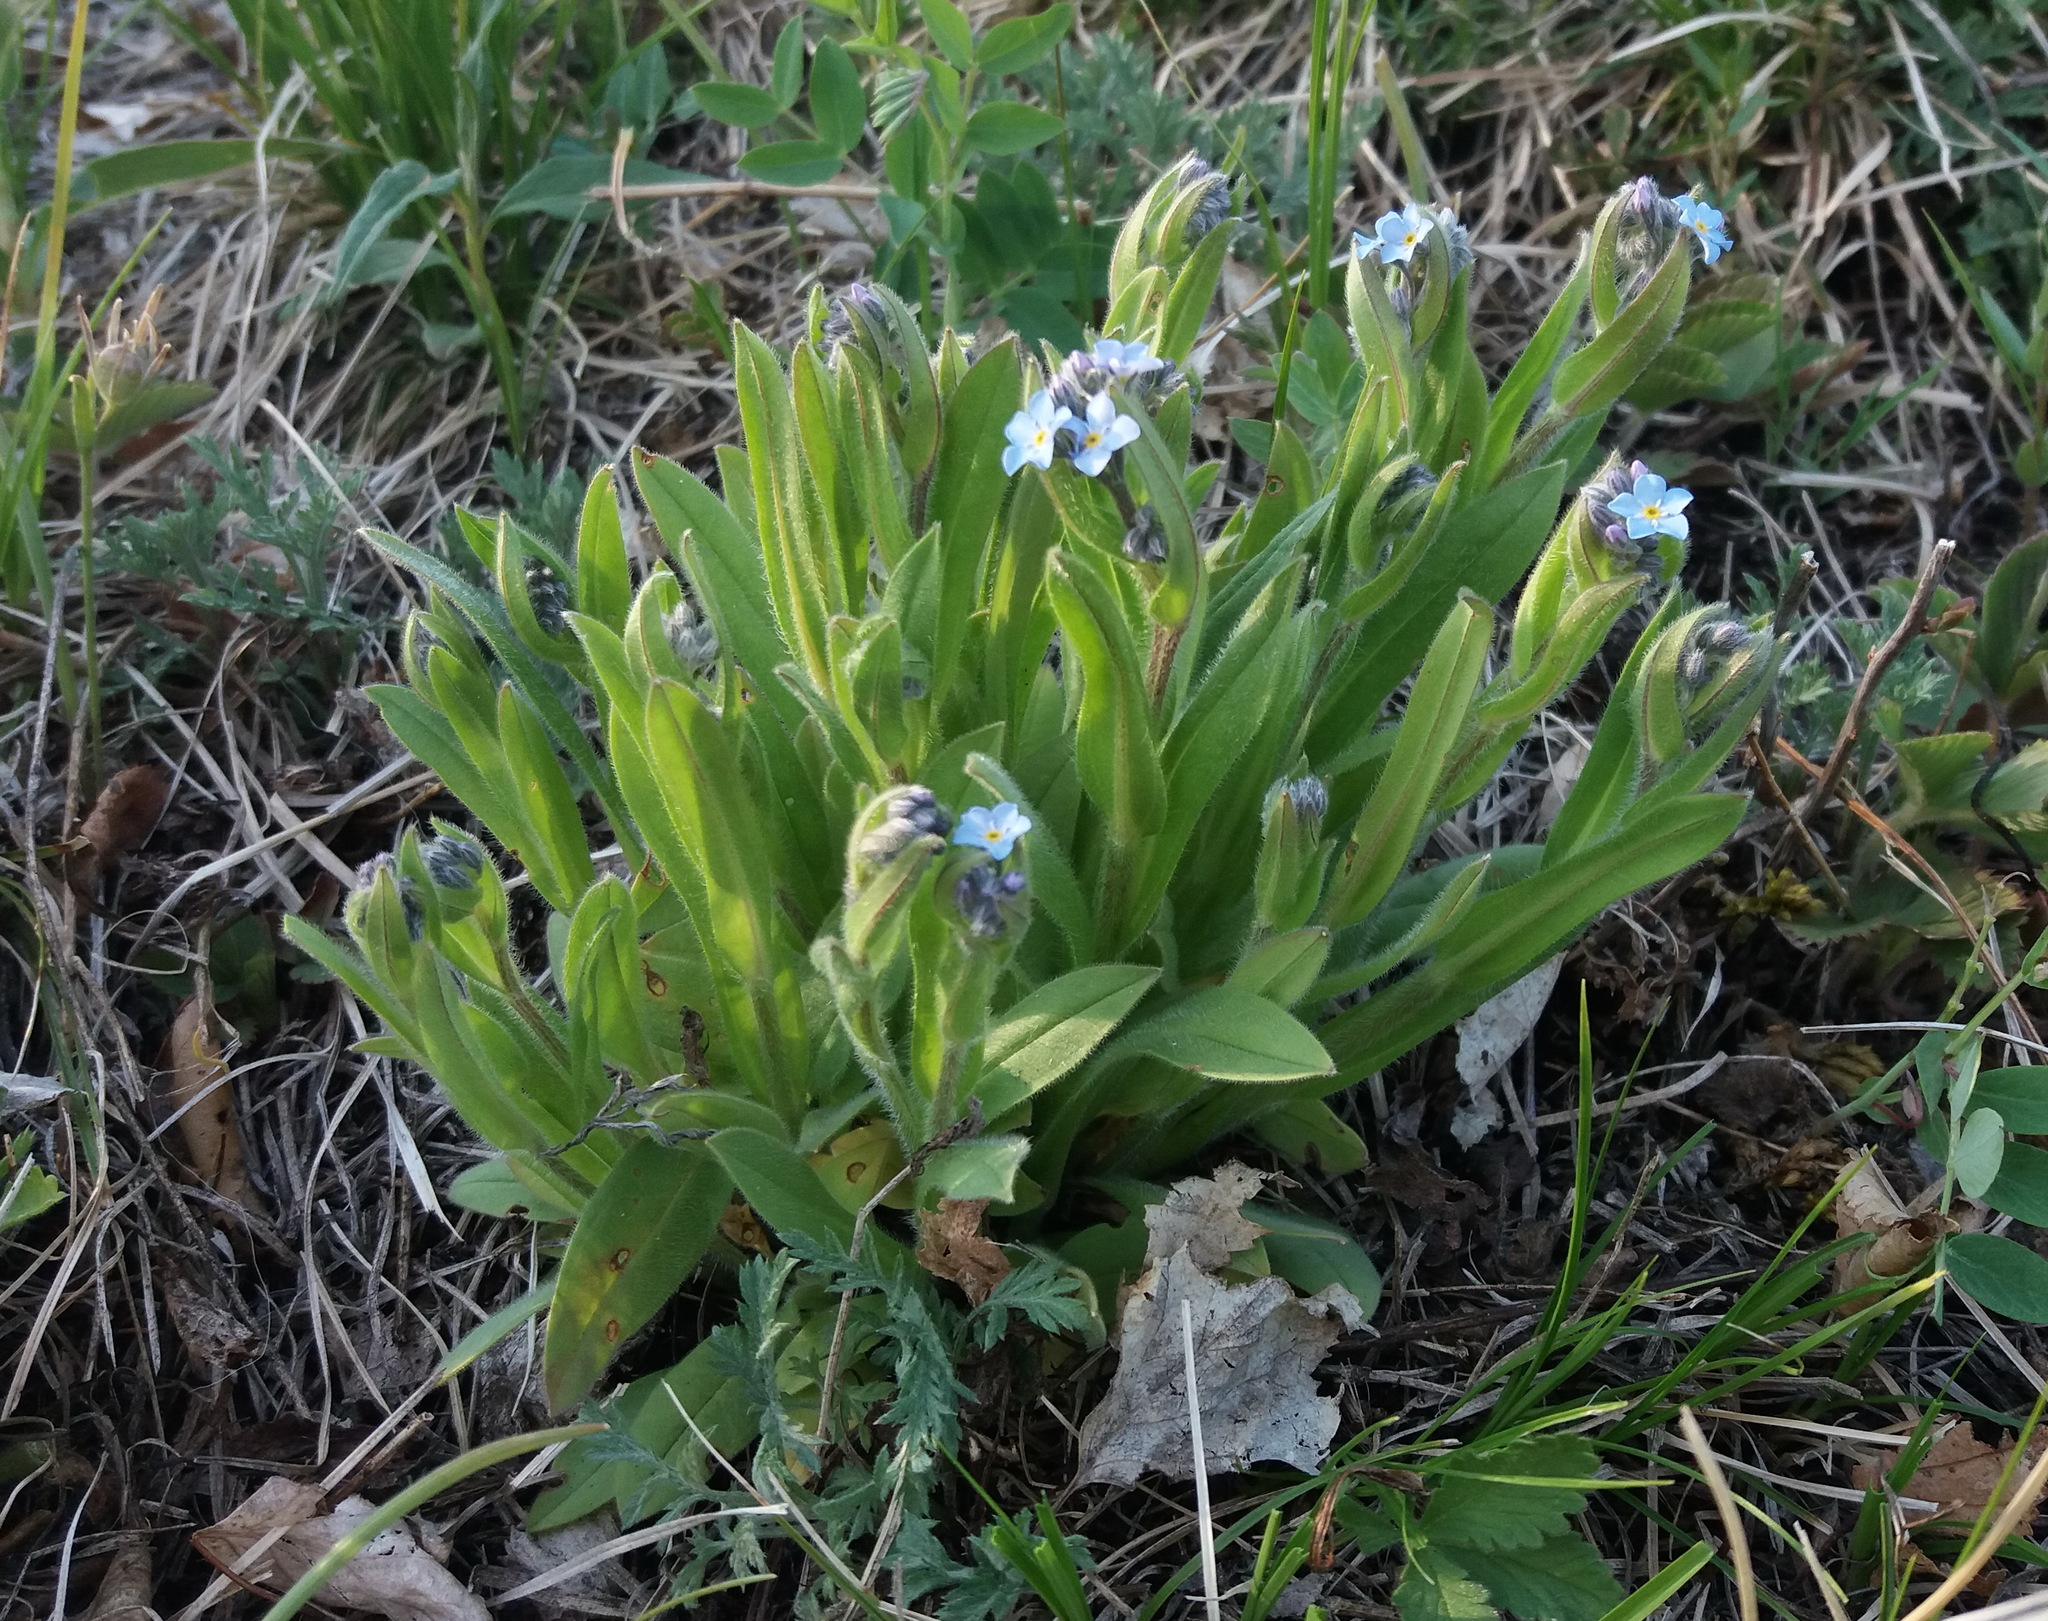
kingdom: Plantae
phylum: Tracheophyta
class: Magnoliopsida
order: Boraginales
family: Boraginaceae
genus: Myosotis
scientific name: Myosotis imitata
